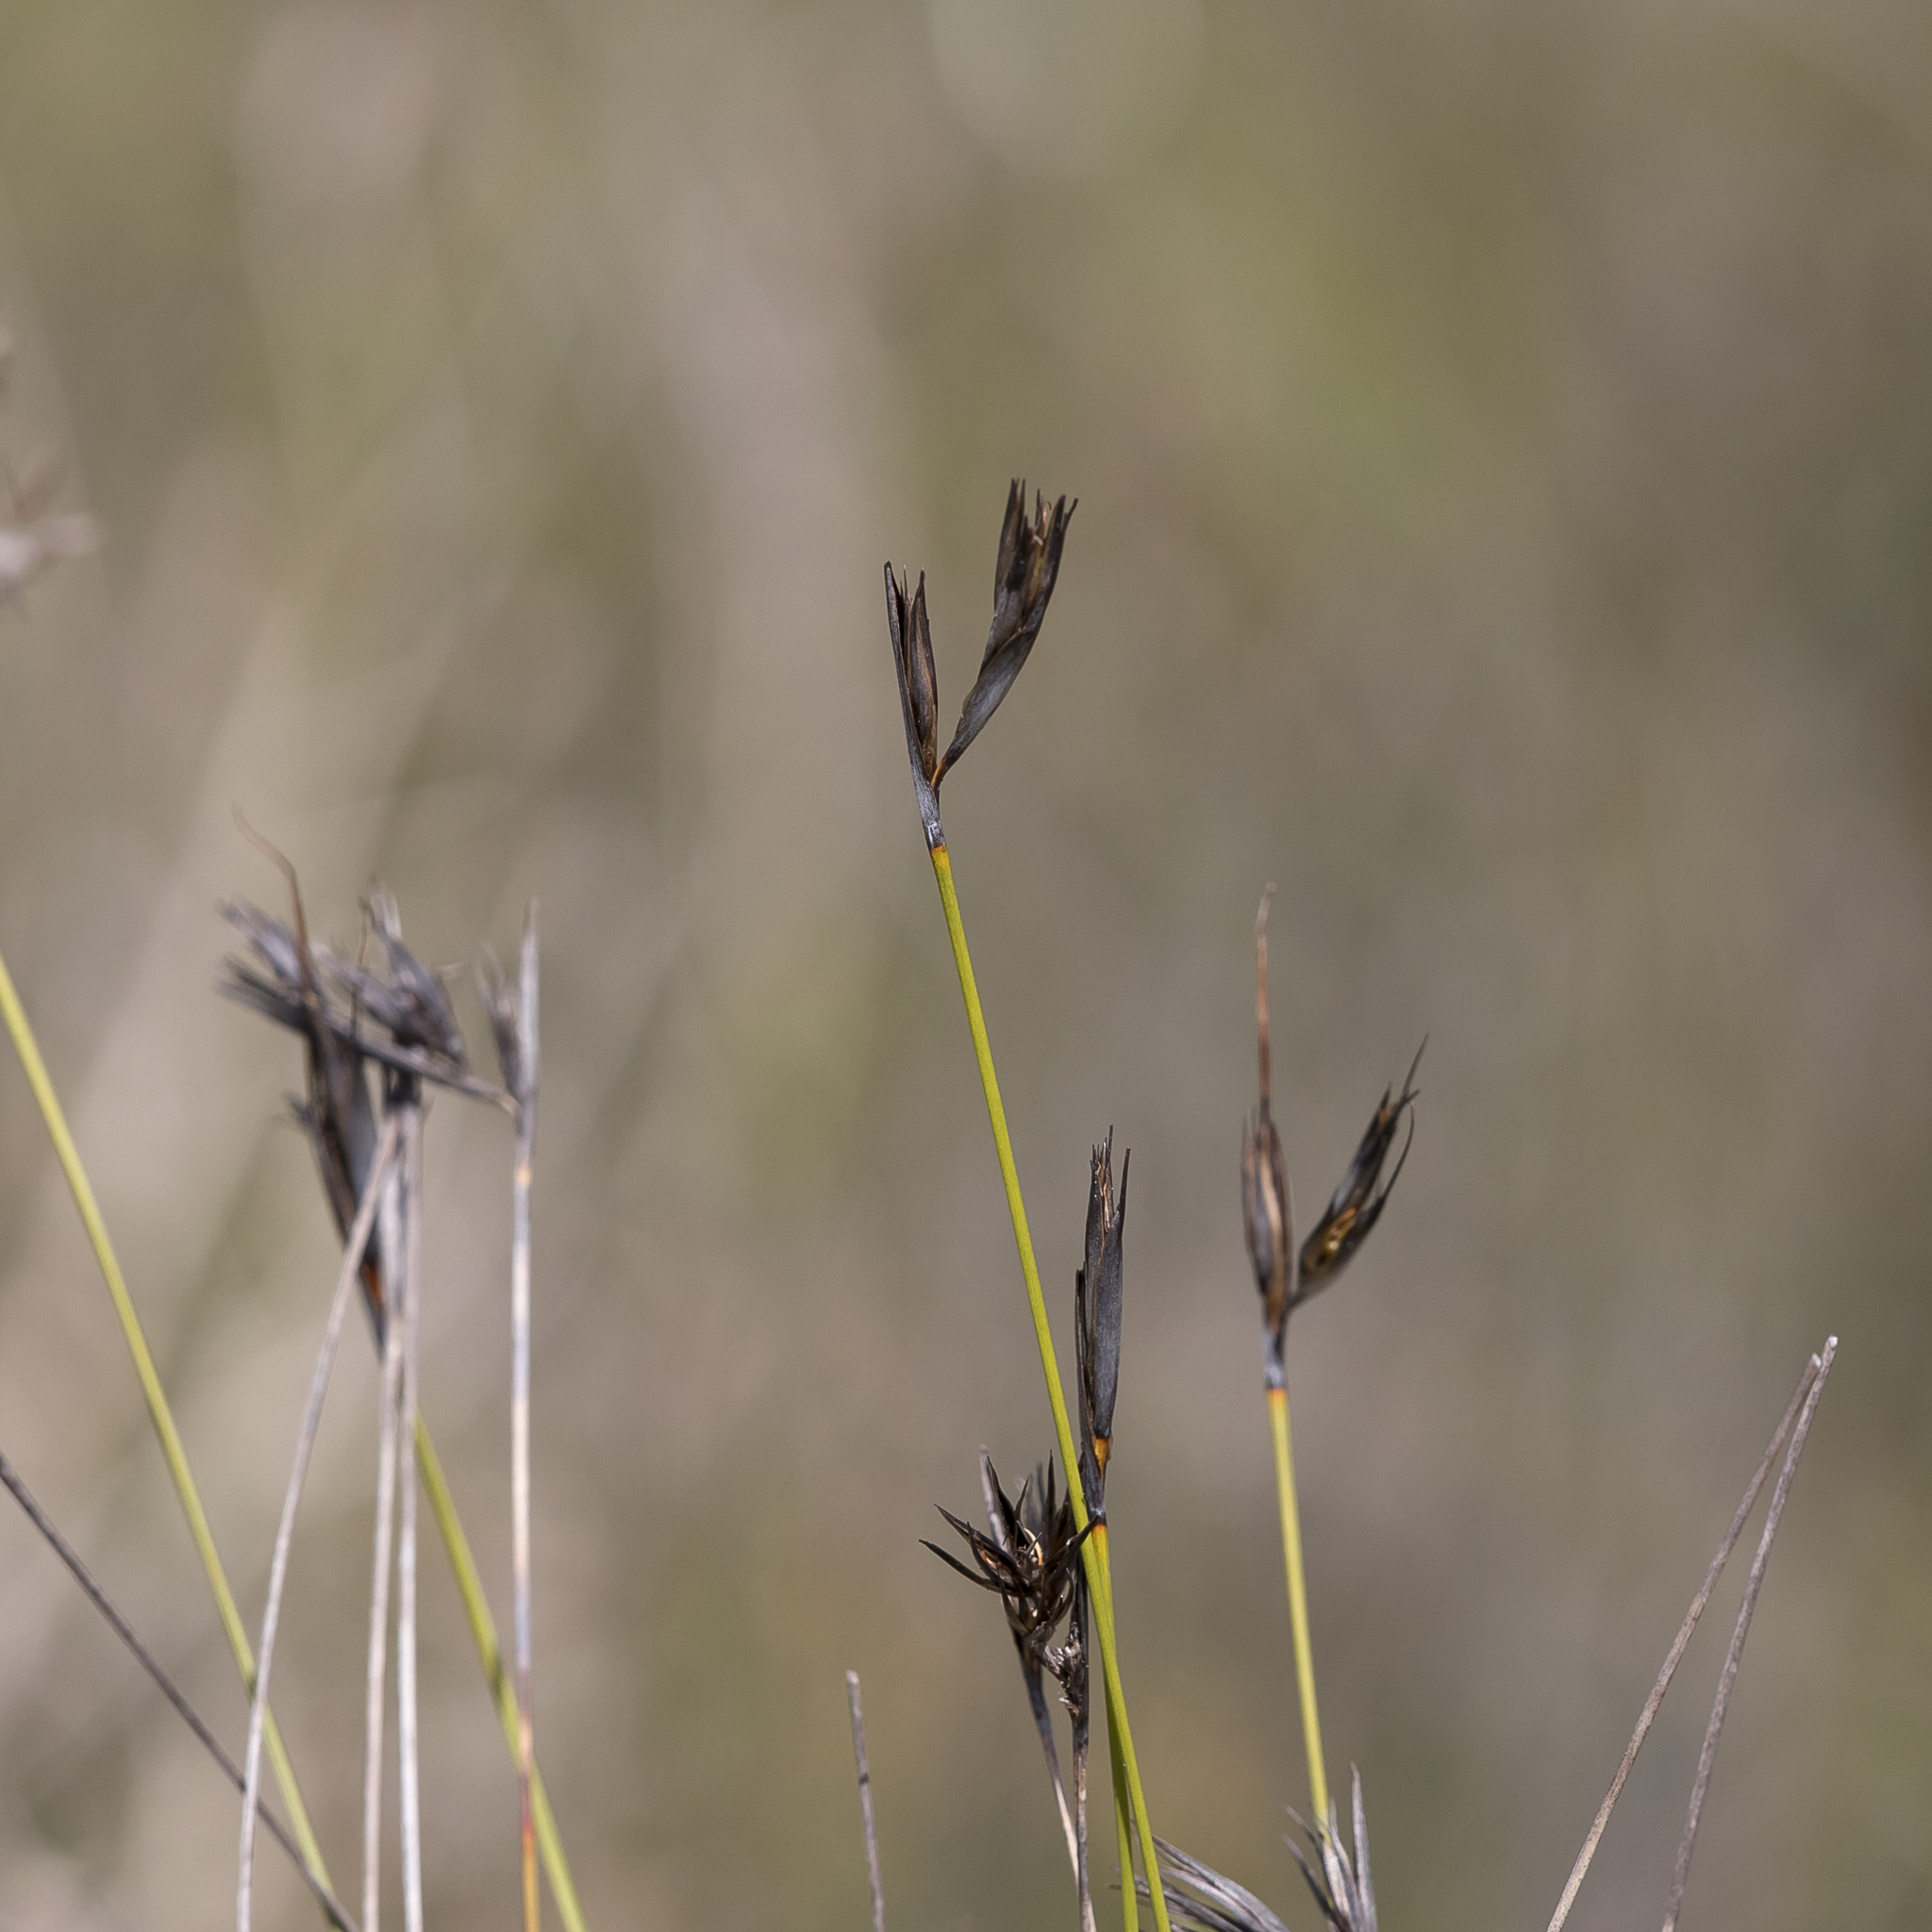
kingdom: Plantae
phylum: Tracheophyta
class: Liliopsida
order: Poales
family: Cyperaceae
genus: Lepidosperma
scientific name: Lepidosperma carphoides
